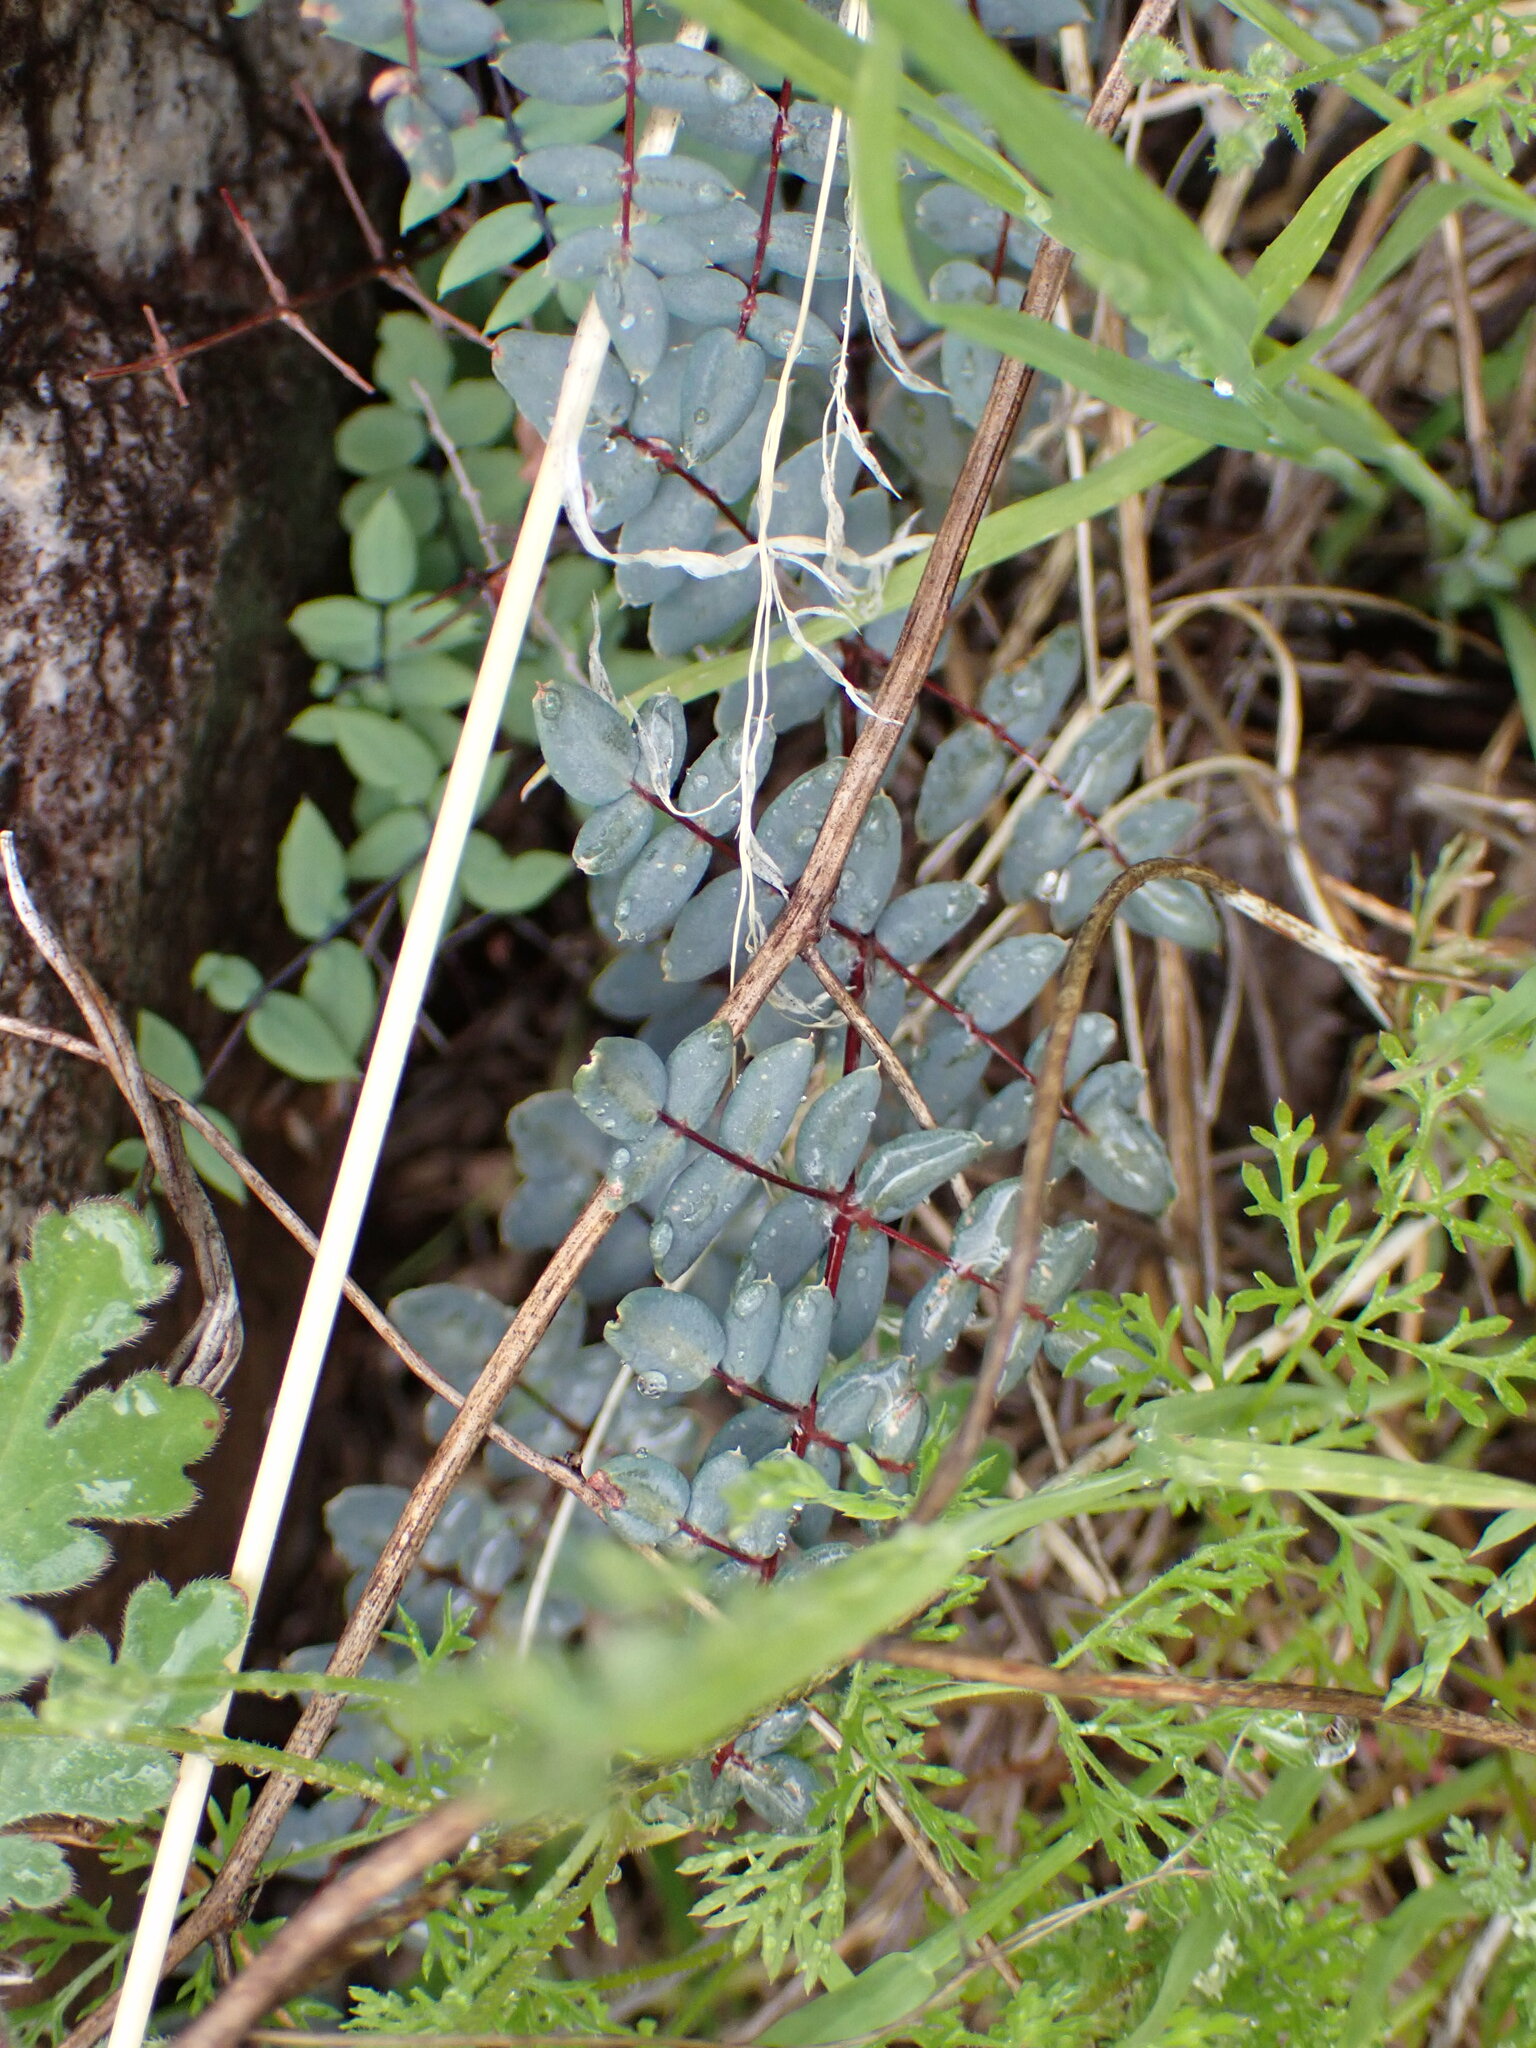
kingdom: Plantae
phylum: Tracheophyta
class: Polypodiopsida
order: Polypodiales
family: Pteridaceae
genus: Pellaea
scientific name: Pellaea truncata
